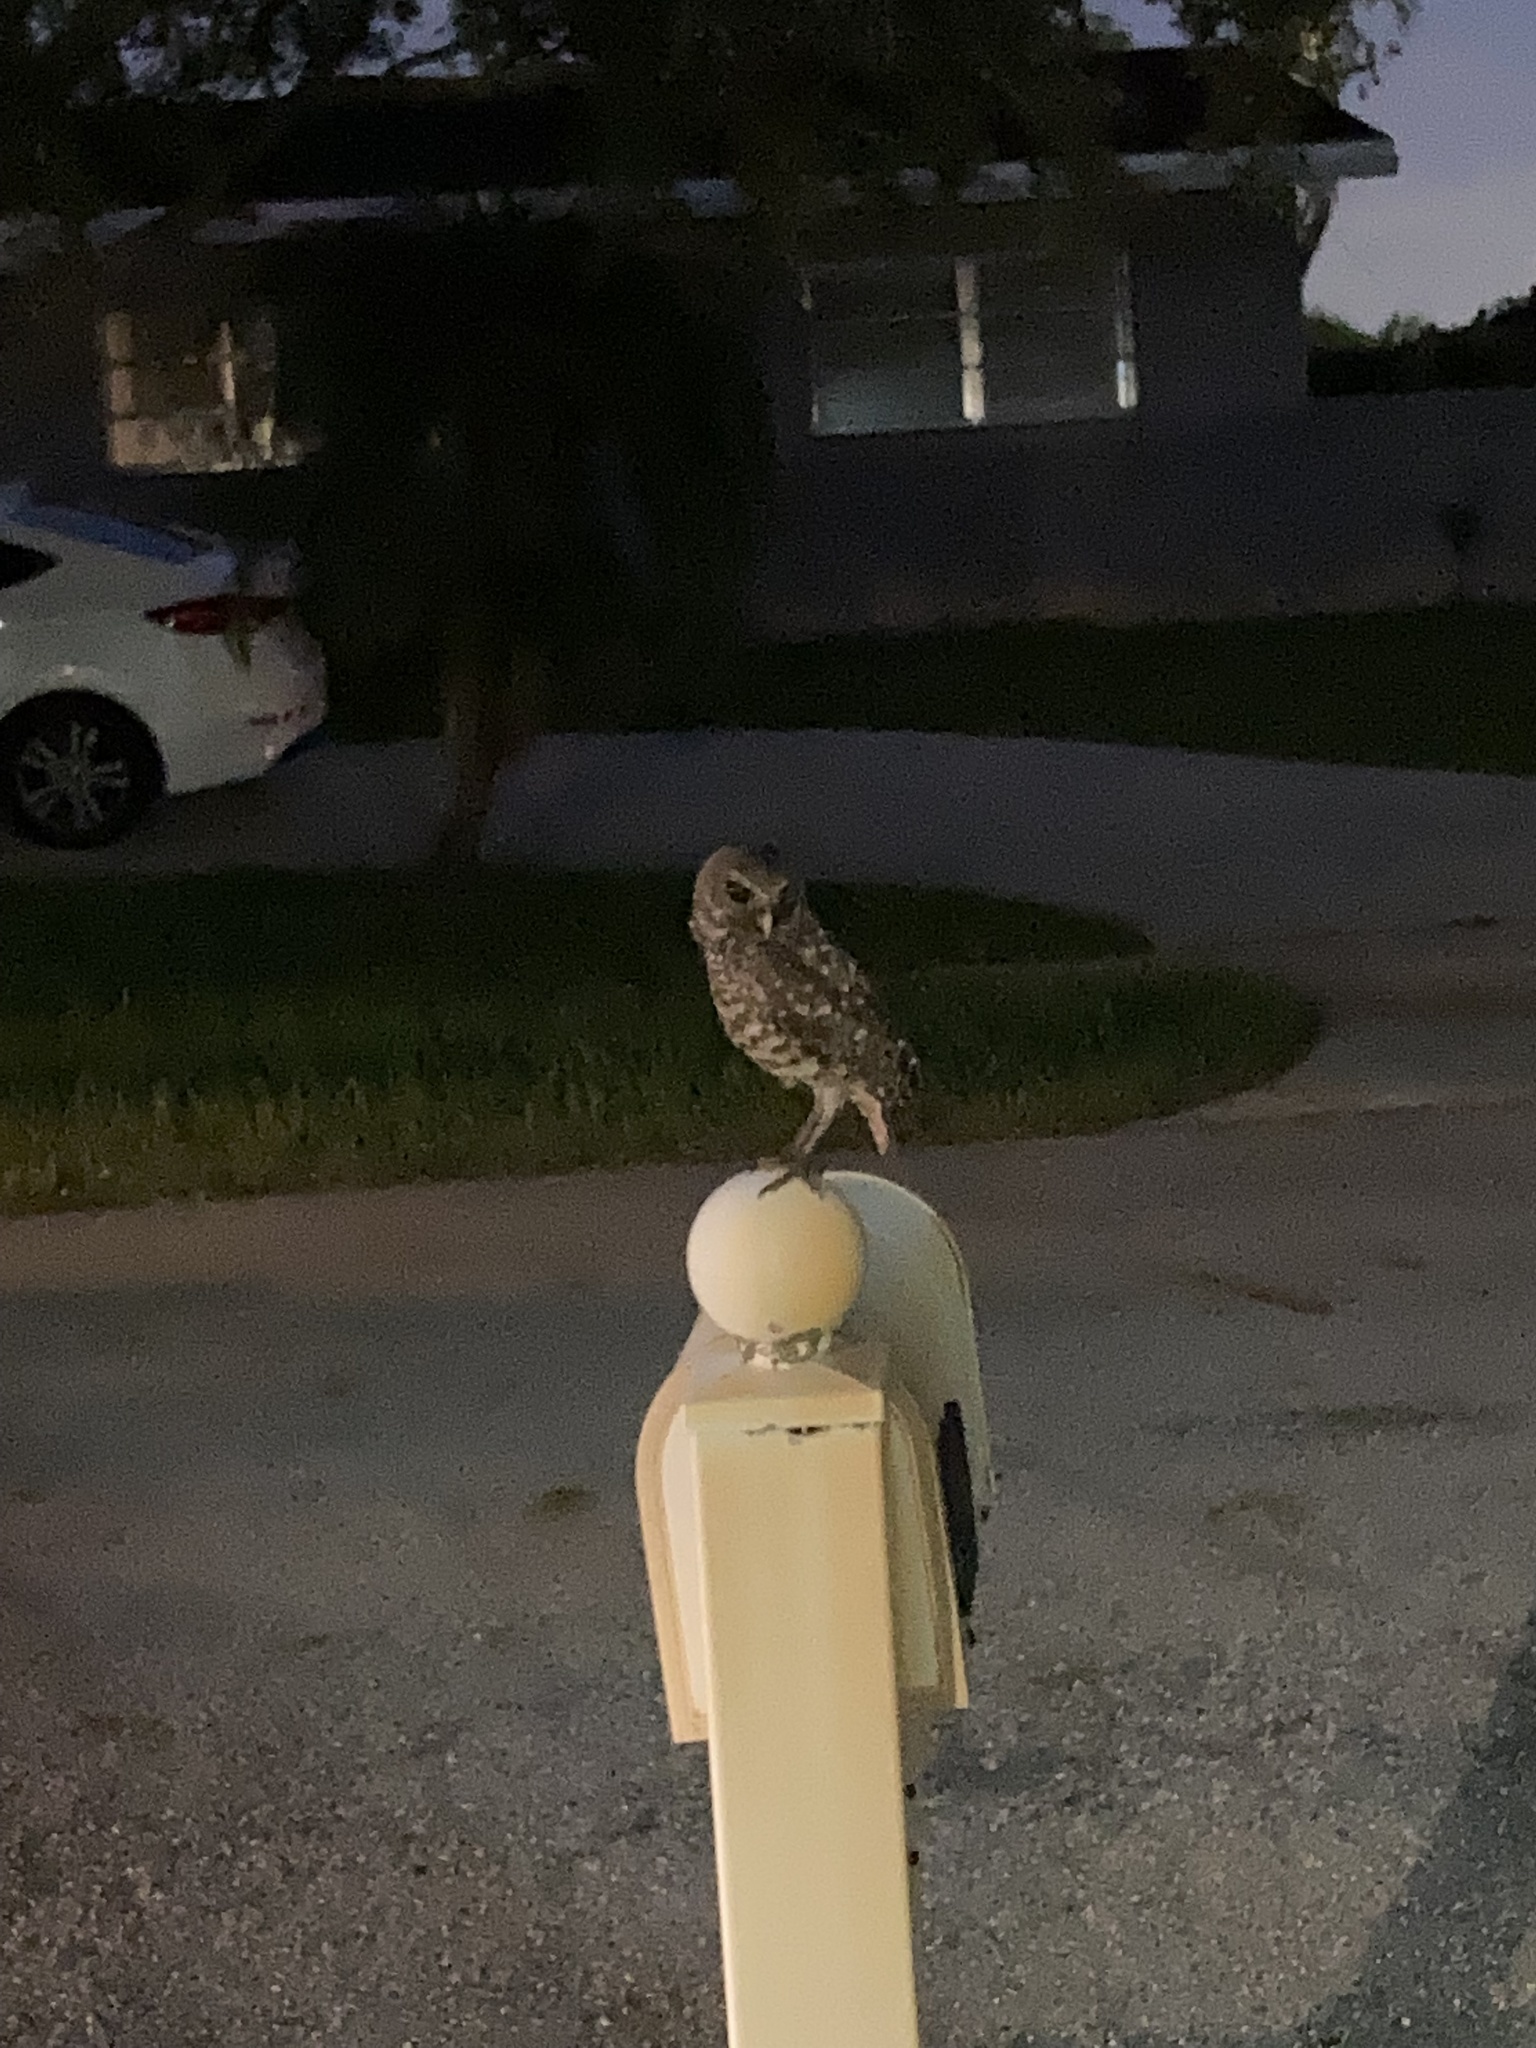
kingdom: Animalia
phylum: Chordata
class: Aves
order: Strigiformes
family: Strigidae
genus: Athene
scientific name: Athene cunicularia
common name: Burrowing owl
